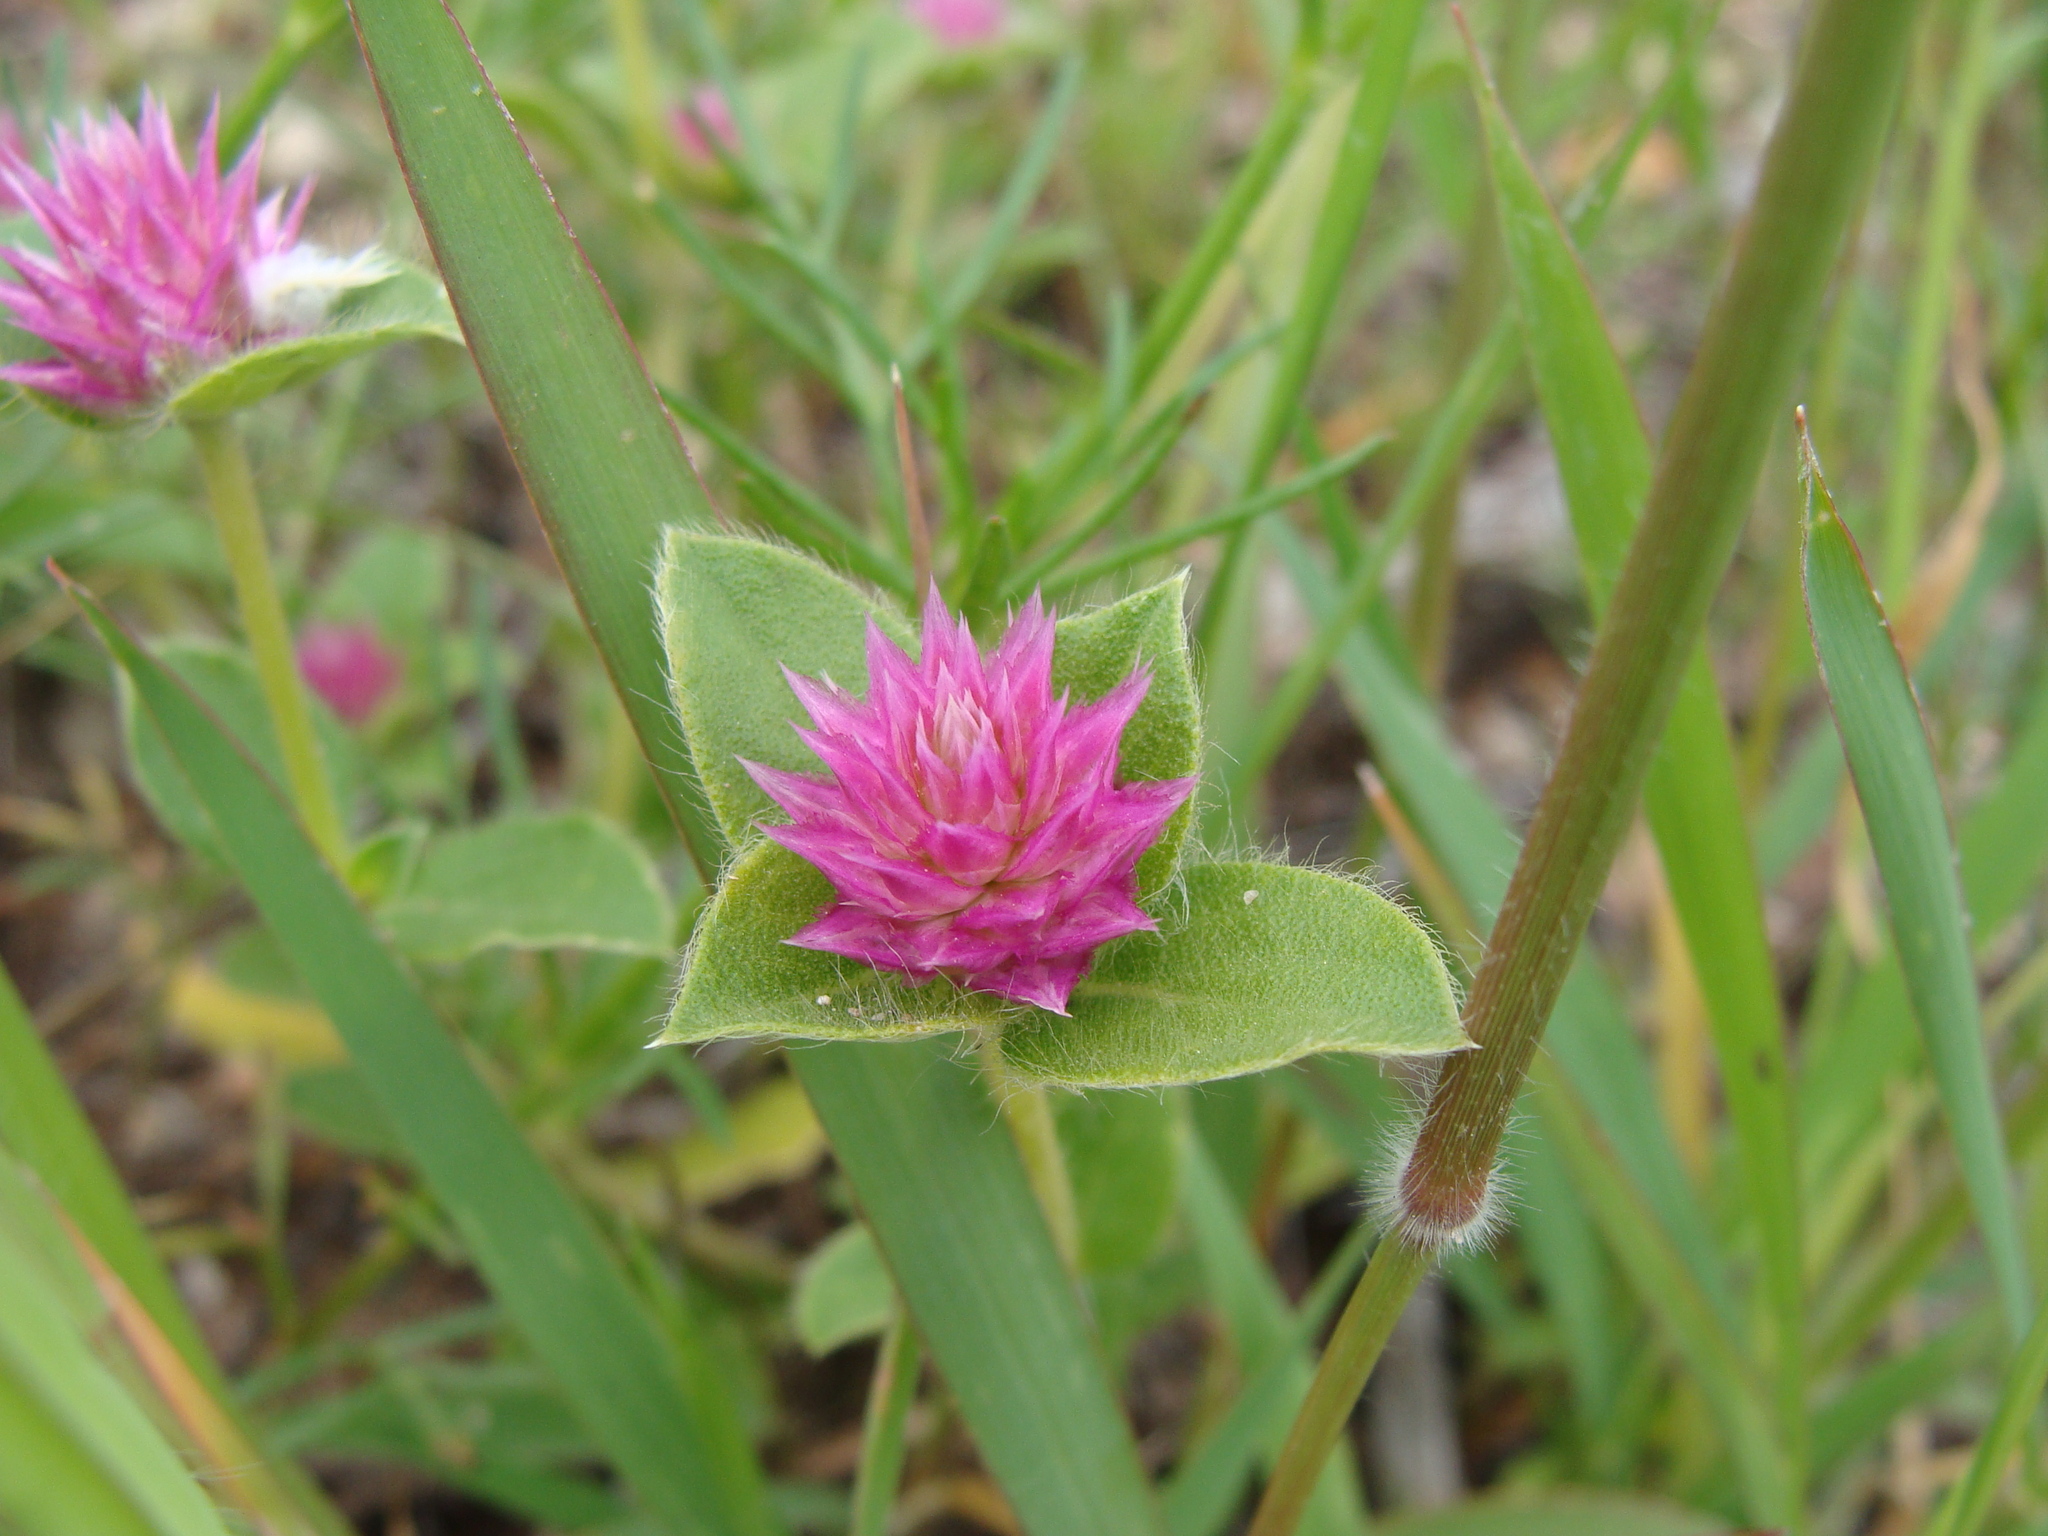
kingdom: Plantae
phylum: Tracheophyta
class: Magnoliopsida
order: Caryophyllales
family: Amaranthaceae
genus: Gomphrena
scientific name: Gomphrena serrata
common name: Arrasa con todo
